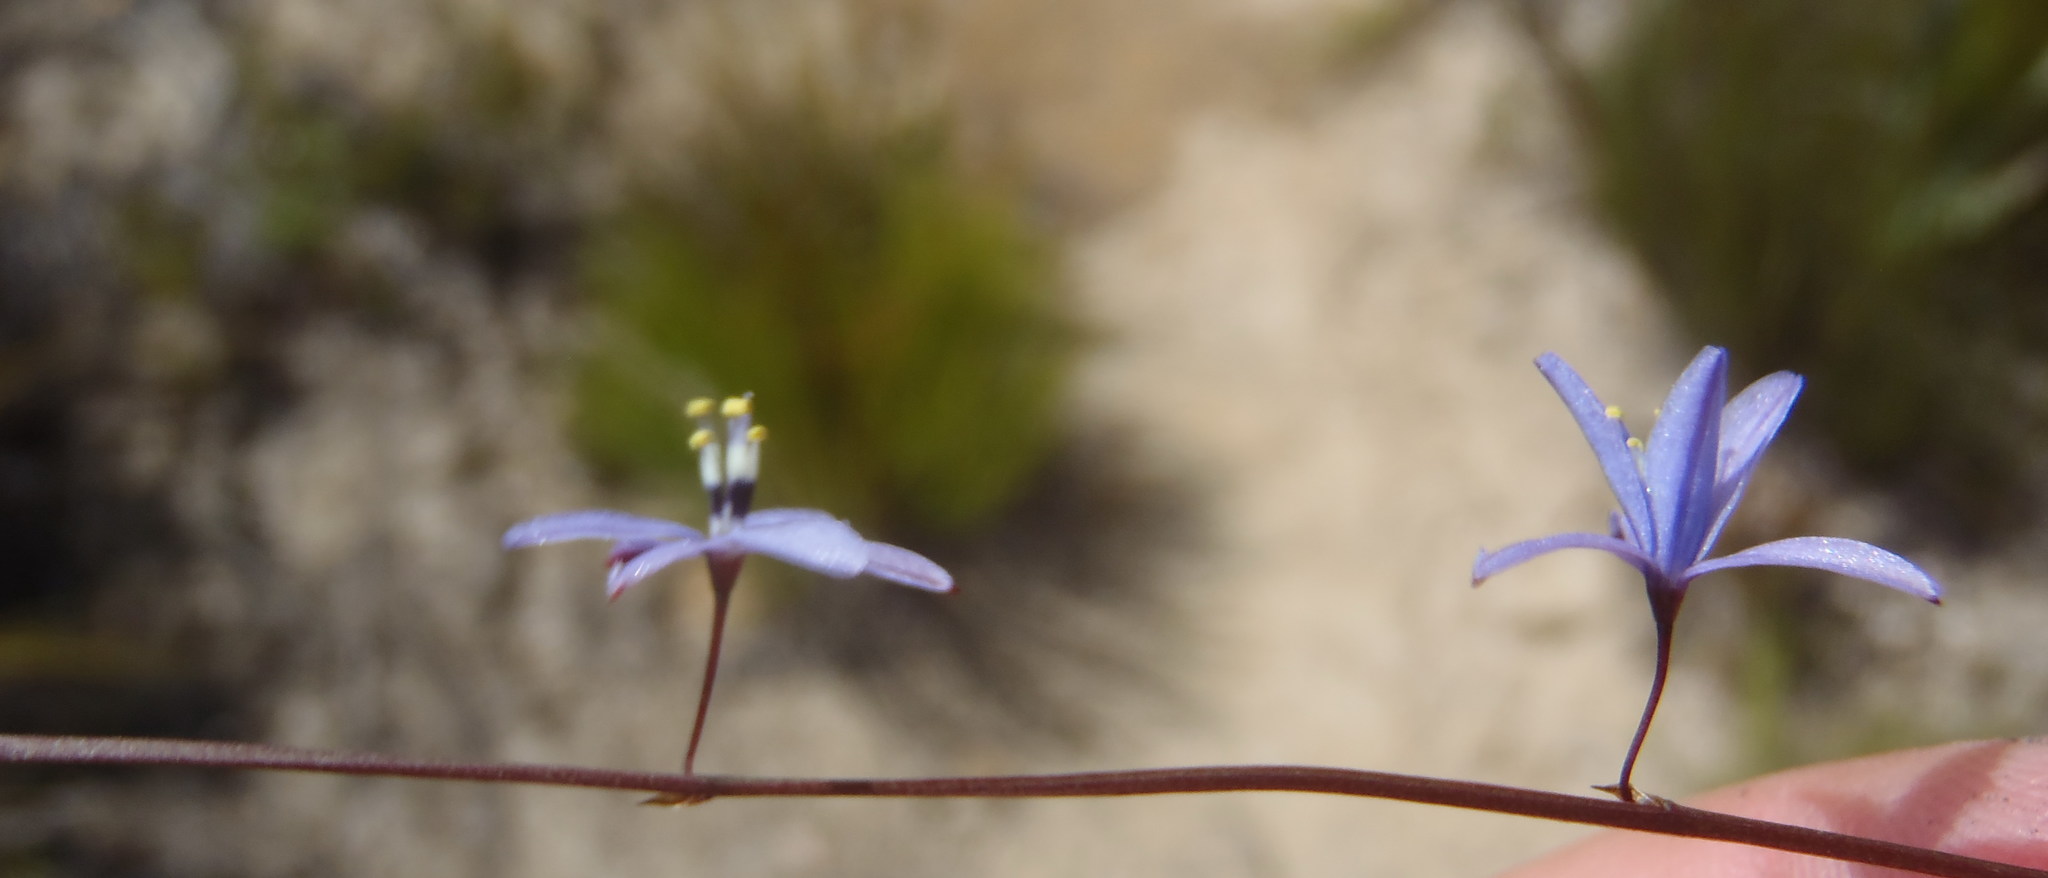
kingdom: Plantae
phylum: Tracheophyta
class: Liliopsida
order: Asparagales
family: Asphodelaceae
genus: Caesia
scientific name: Caesia contorta
